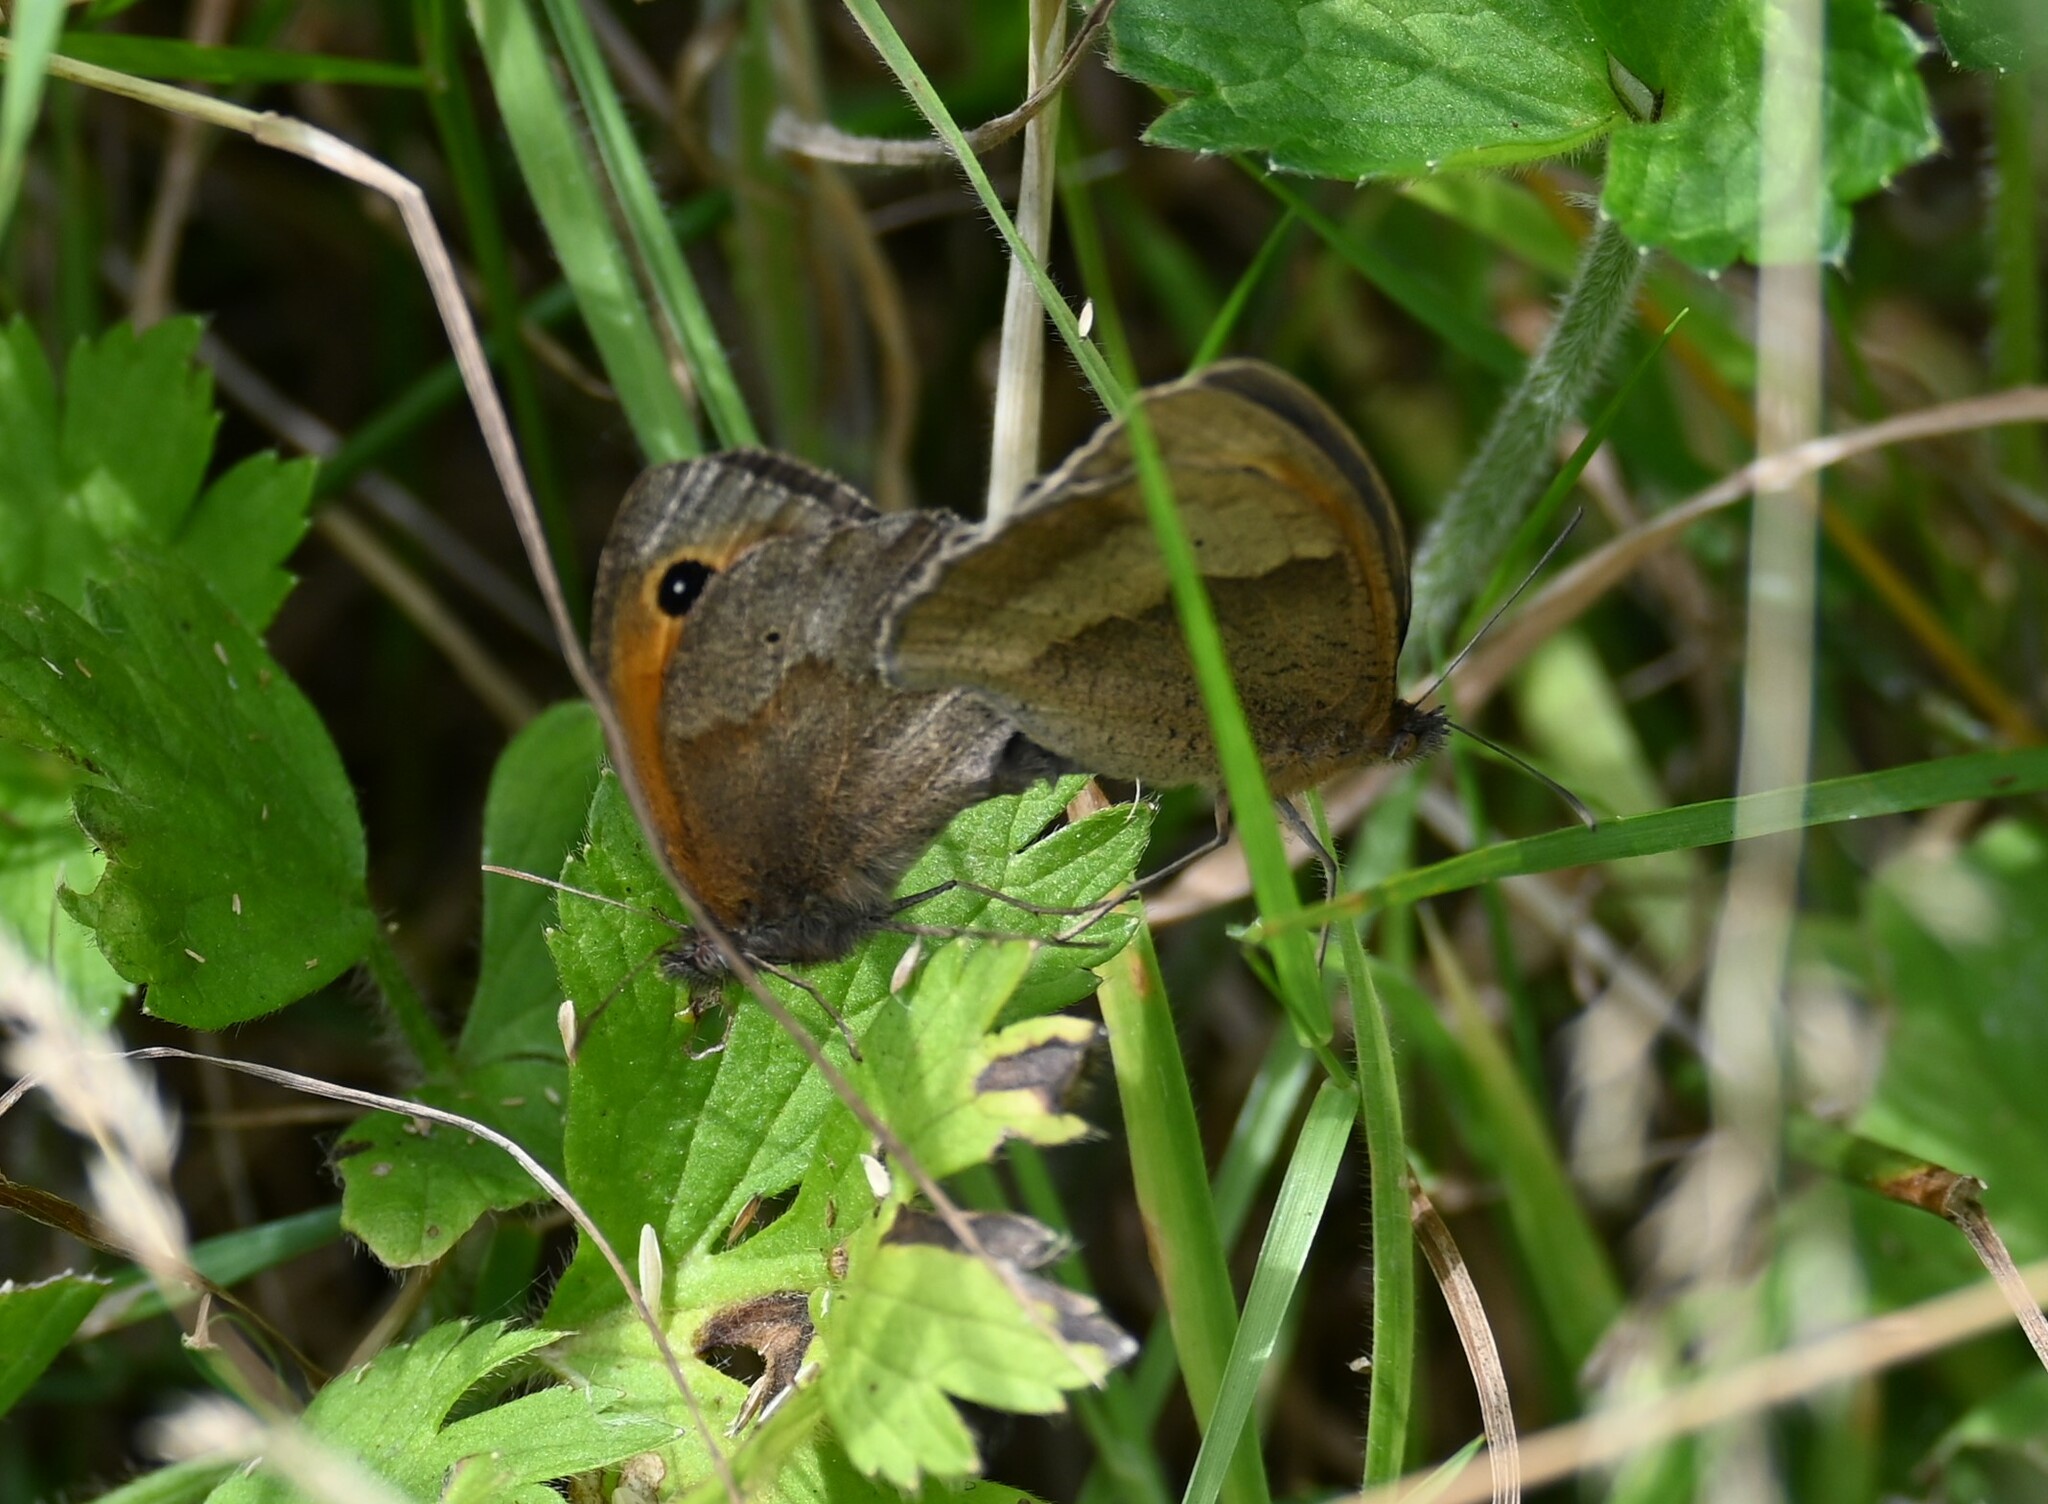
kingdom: Animalia
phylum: Arthropoda
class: Insecta
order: Lepidoptera
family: Nymphalidae
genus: Maniola
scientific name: Maniola jurtina
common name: Meadow brown
